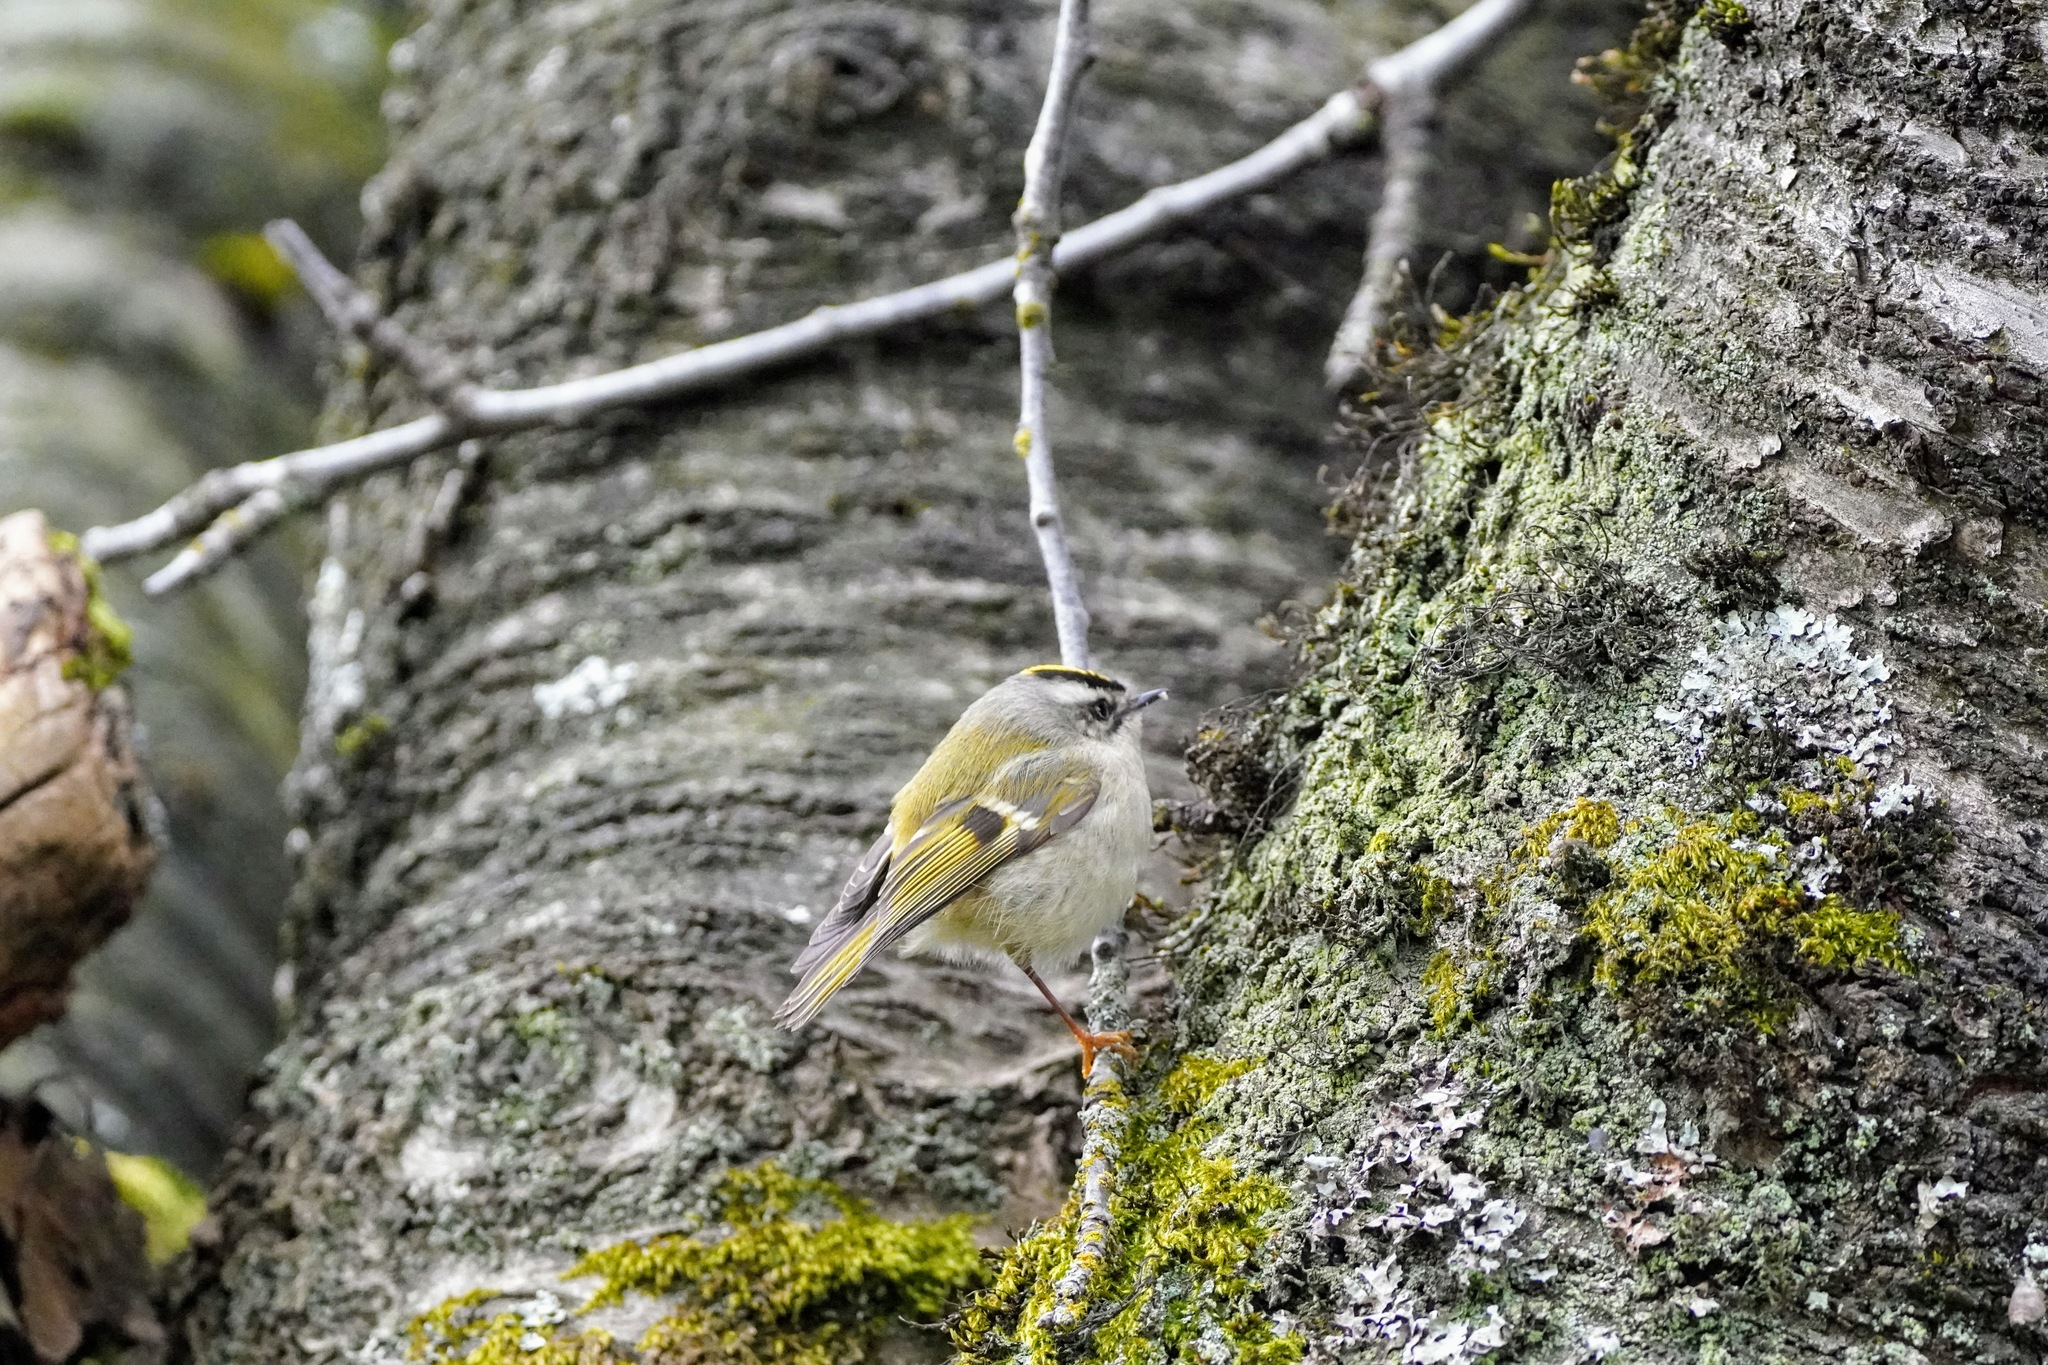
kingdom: Animalia
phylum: Chordata
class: Aves
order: Passeriformes
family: Regulidae
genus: Regulus
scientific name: Regulus satrapa
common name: Golden-crowned kinglet
